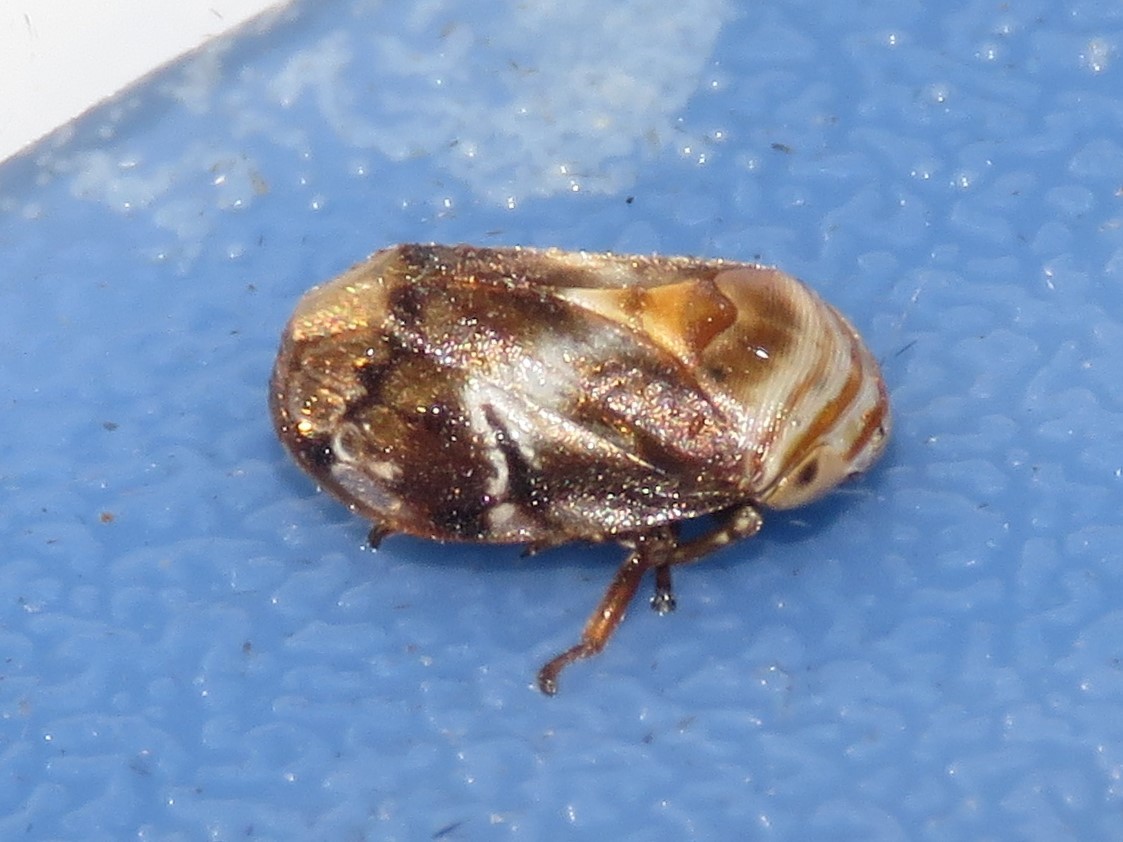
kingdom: Animalia
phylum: Arthropoda
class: Insecta
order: Hemiptera
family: Clastopteridae
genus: Clastoptera
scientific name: Clastoptera obtusa
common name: Alder spittlebug
